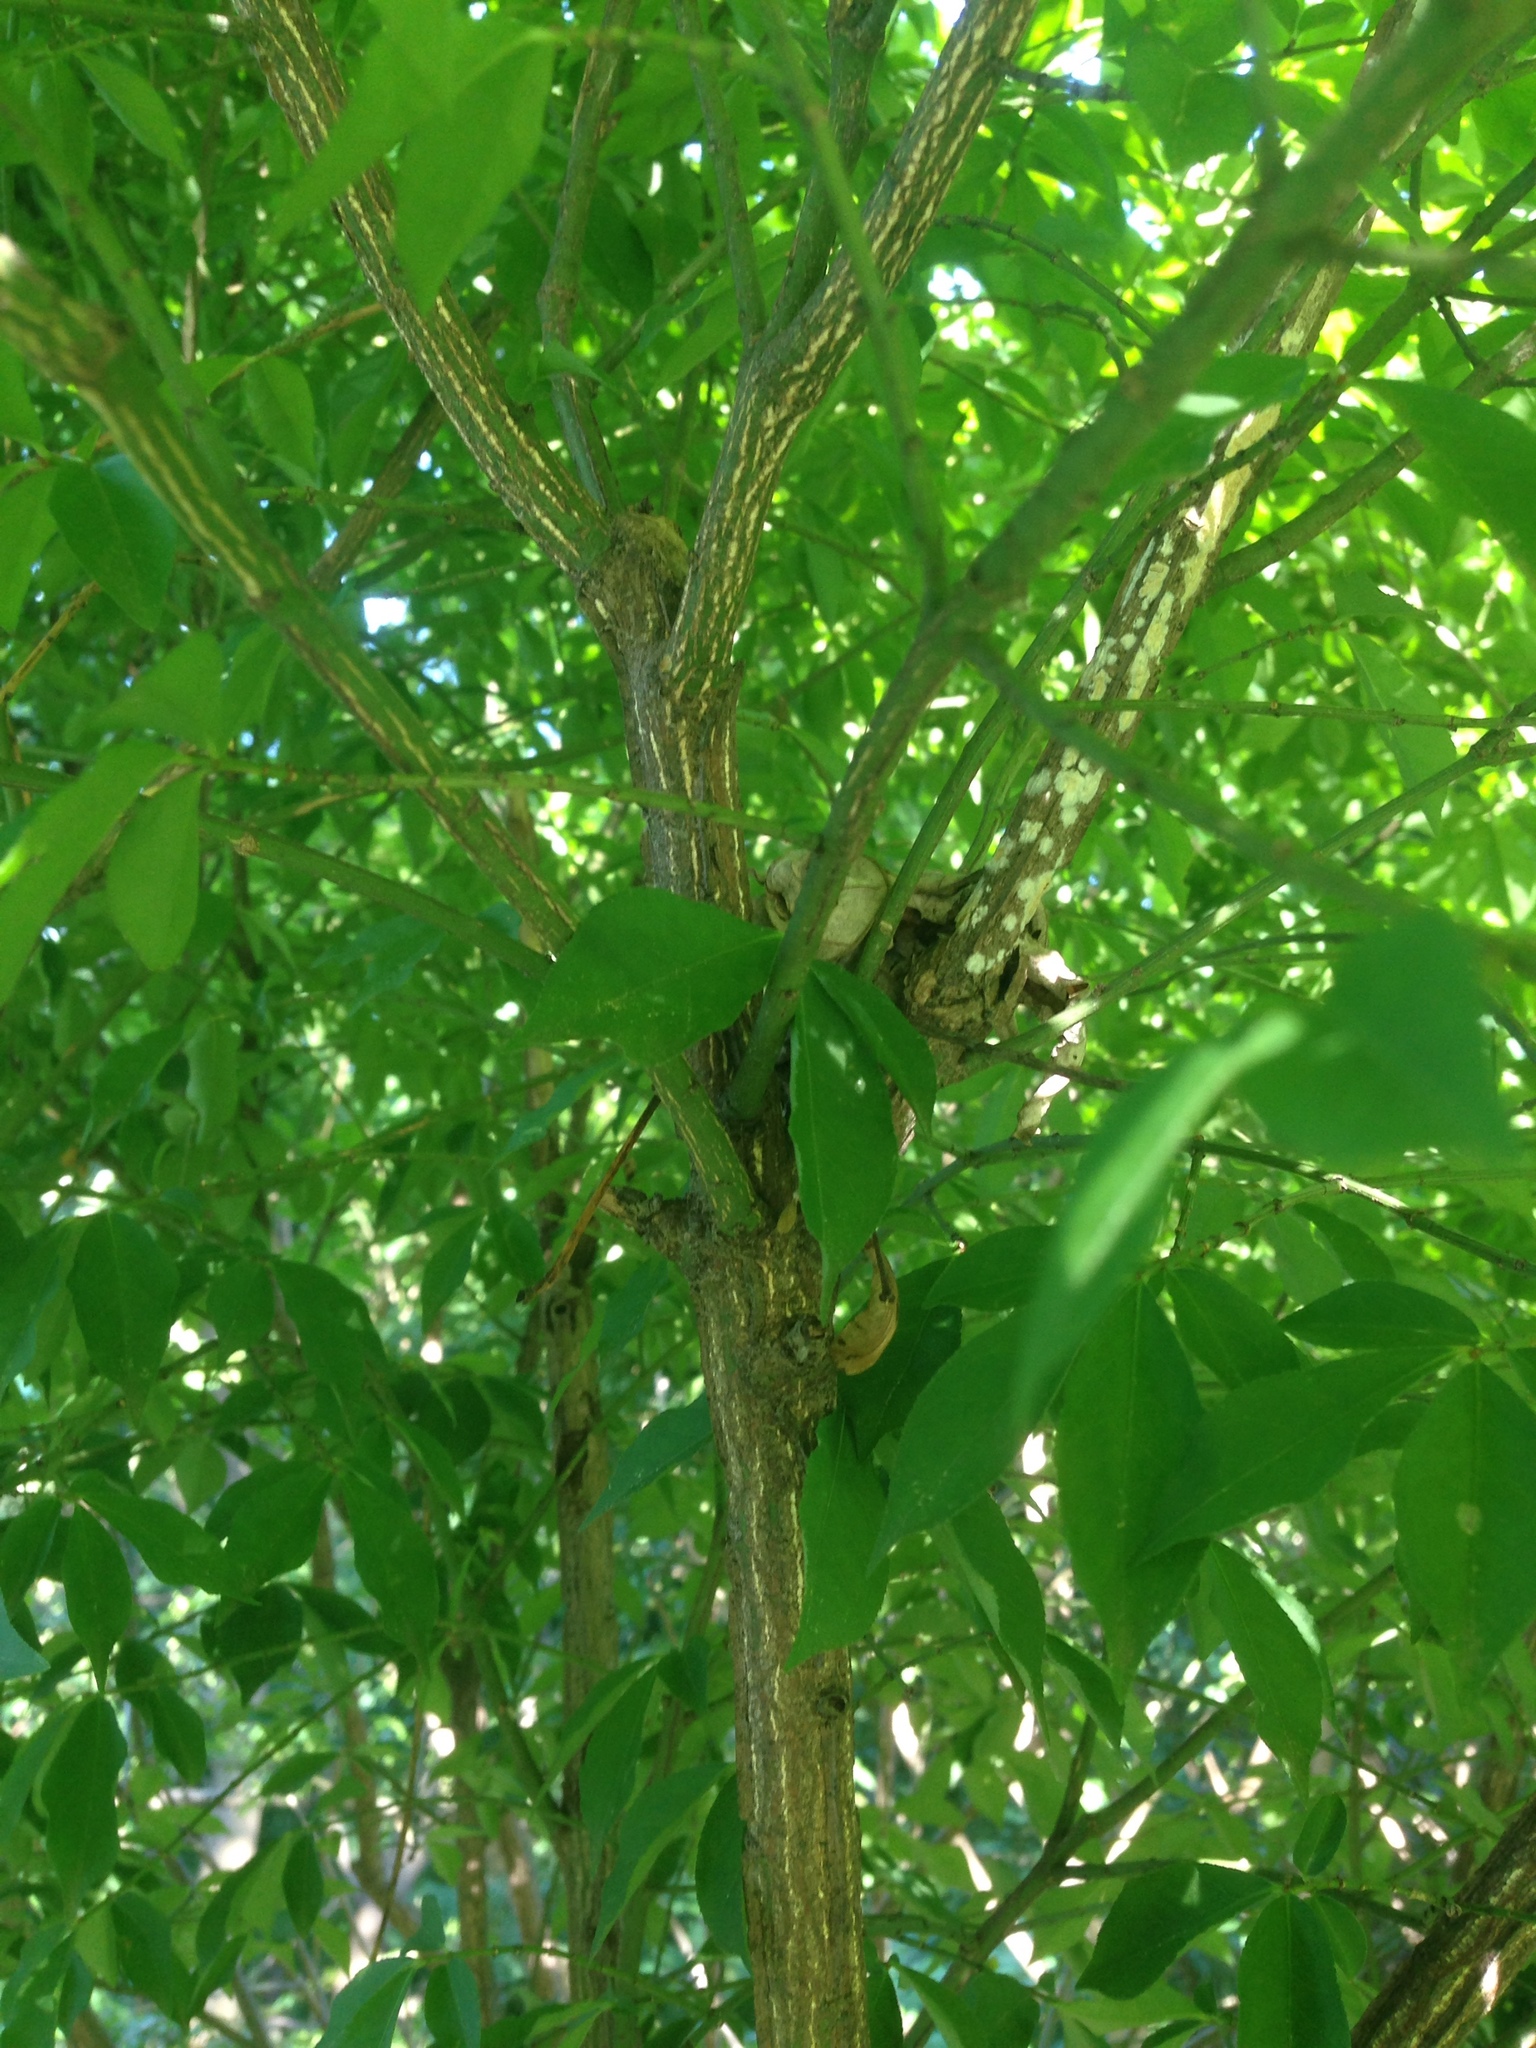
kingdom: Plantae
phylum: Tracheophyta
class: Magnoliopsida
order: Celastrales
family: Celastraceae
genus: Euonymus
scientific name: Euonymus alatus
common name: Winged euonymus
